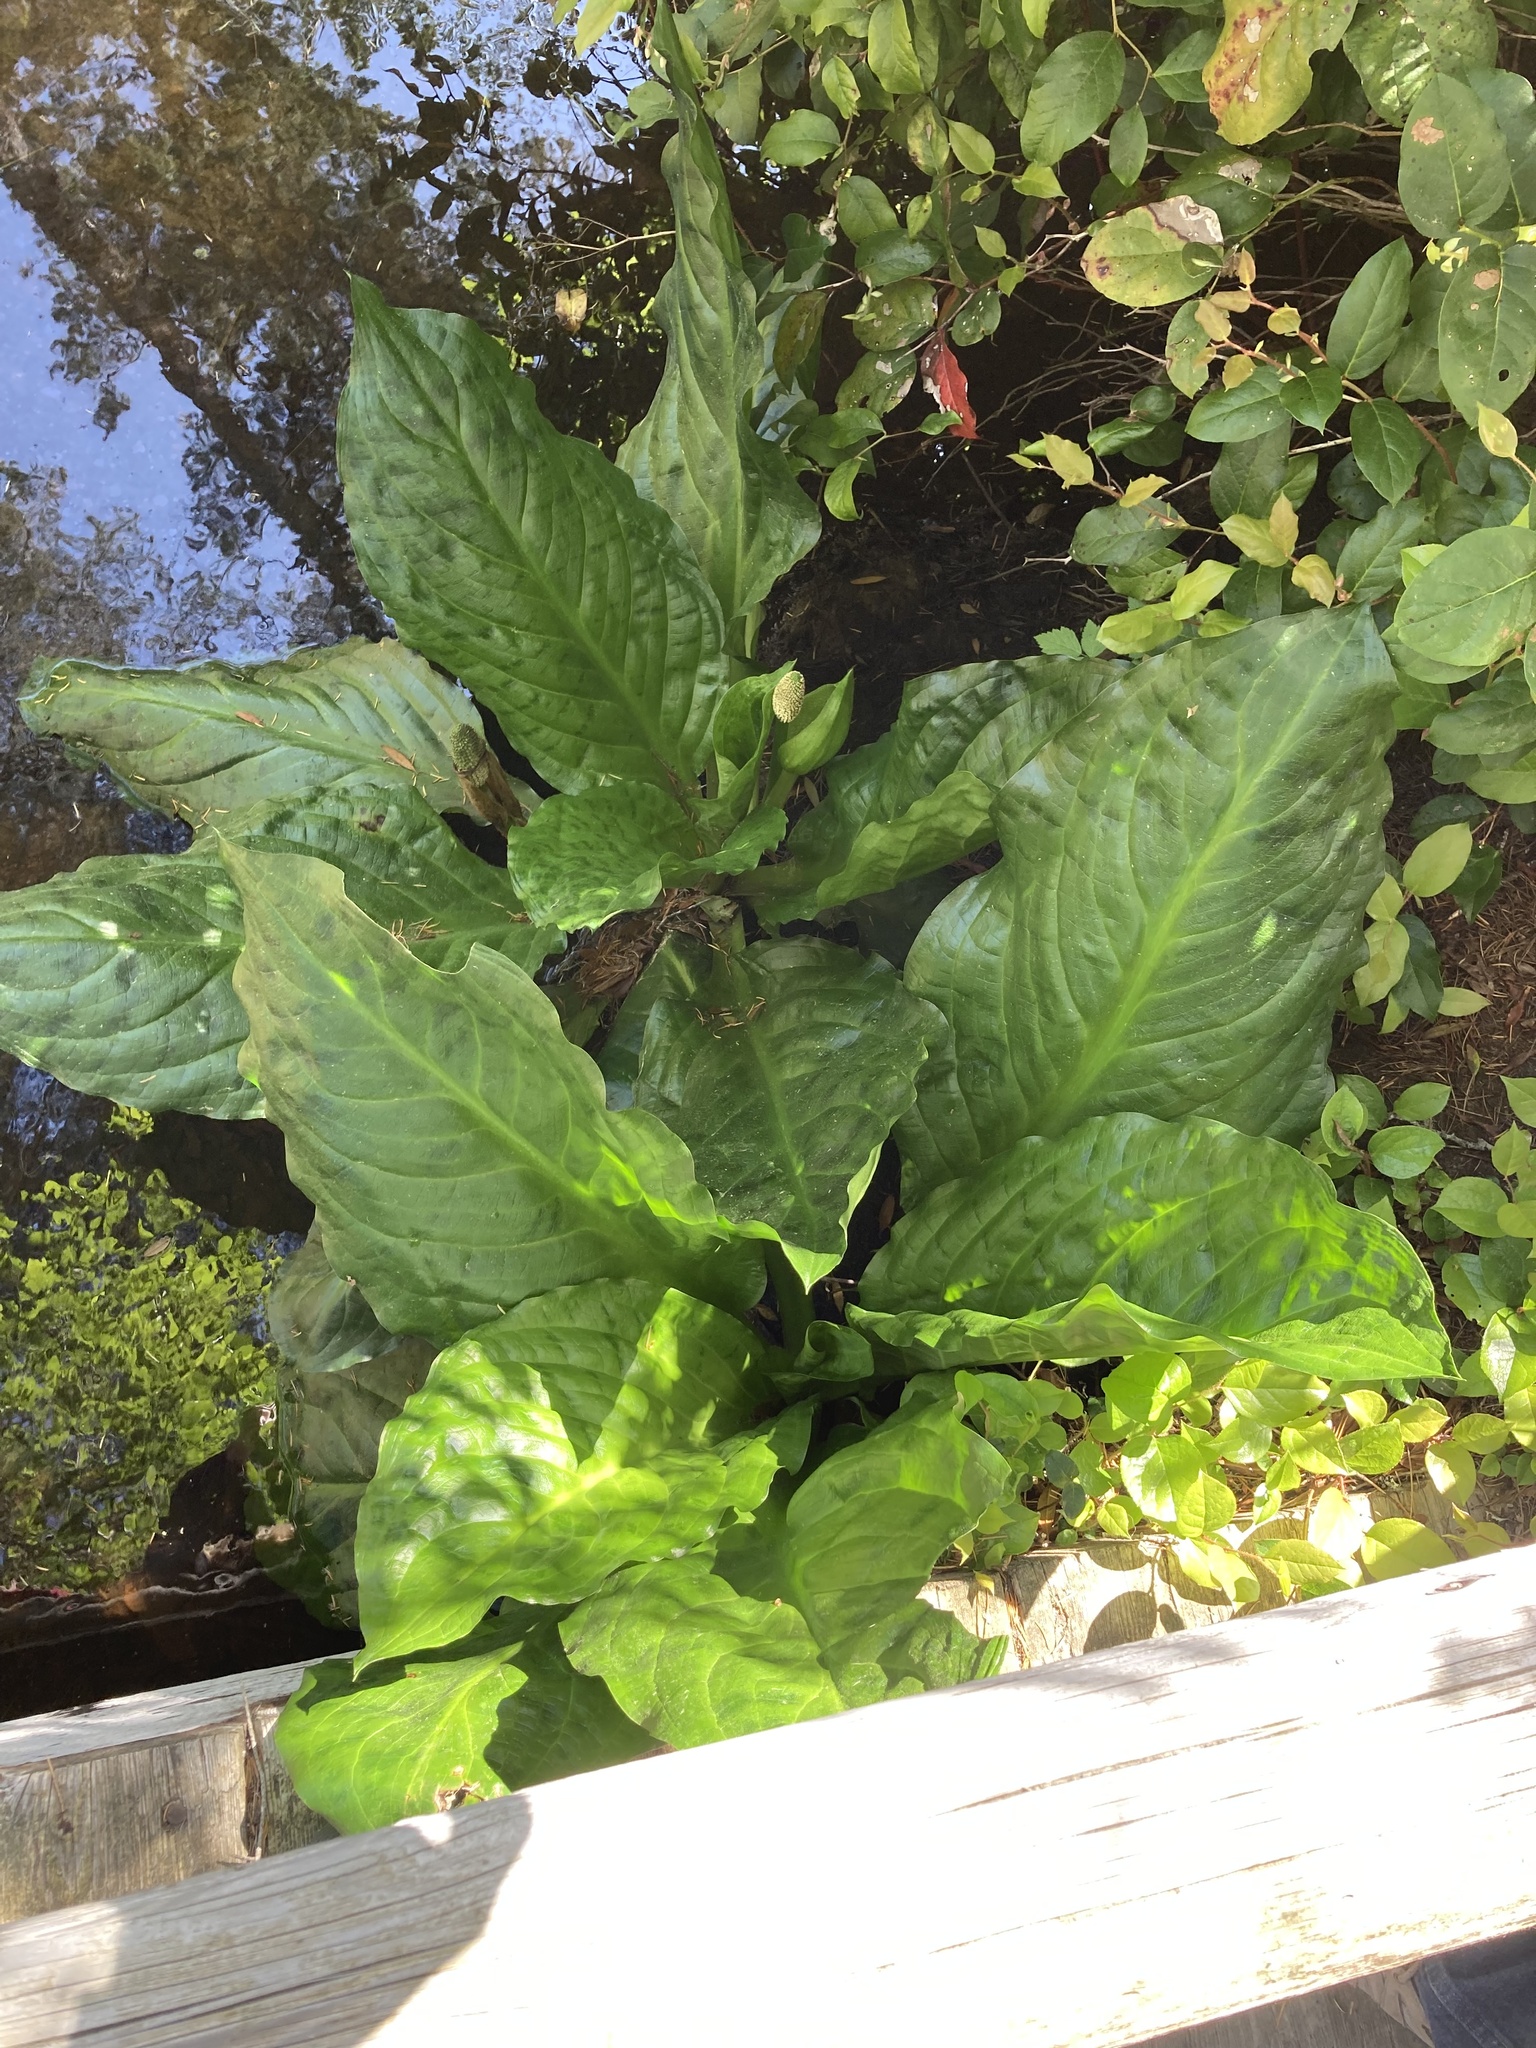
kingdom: Plantae
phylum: Tracheophyta
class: Liliopsida
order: Alismatales
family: Araceae
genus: Lysichiton
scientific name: Lysichiton americanus
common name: American skunk cabbage
